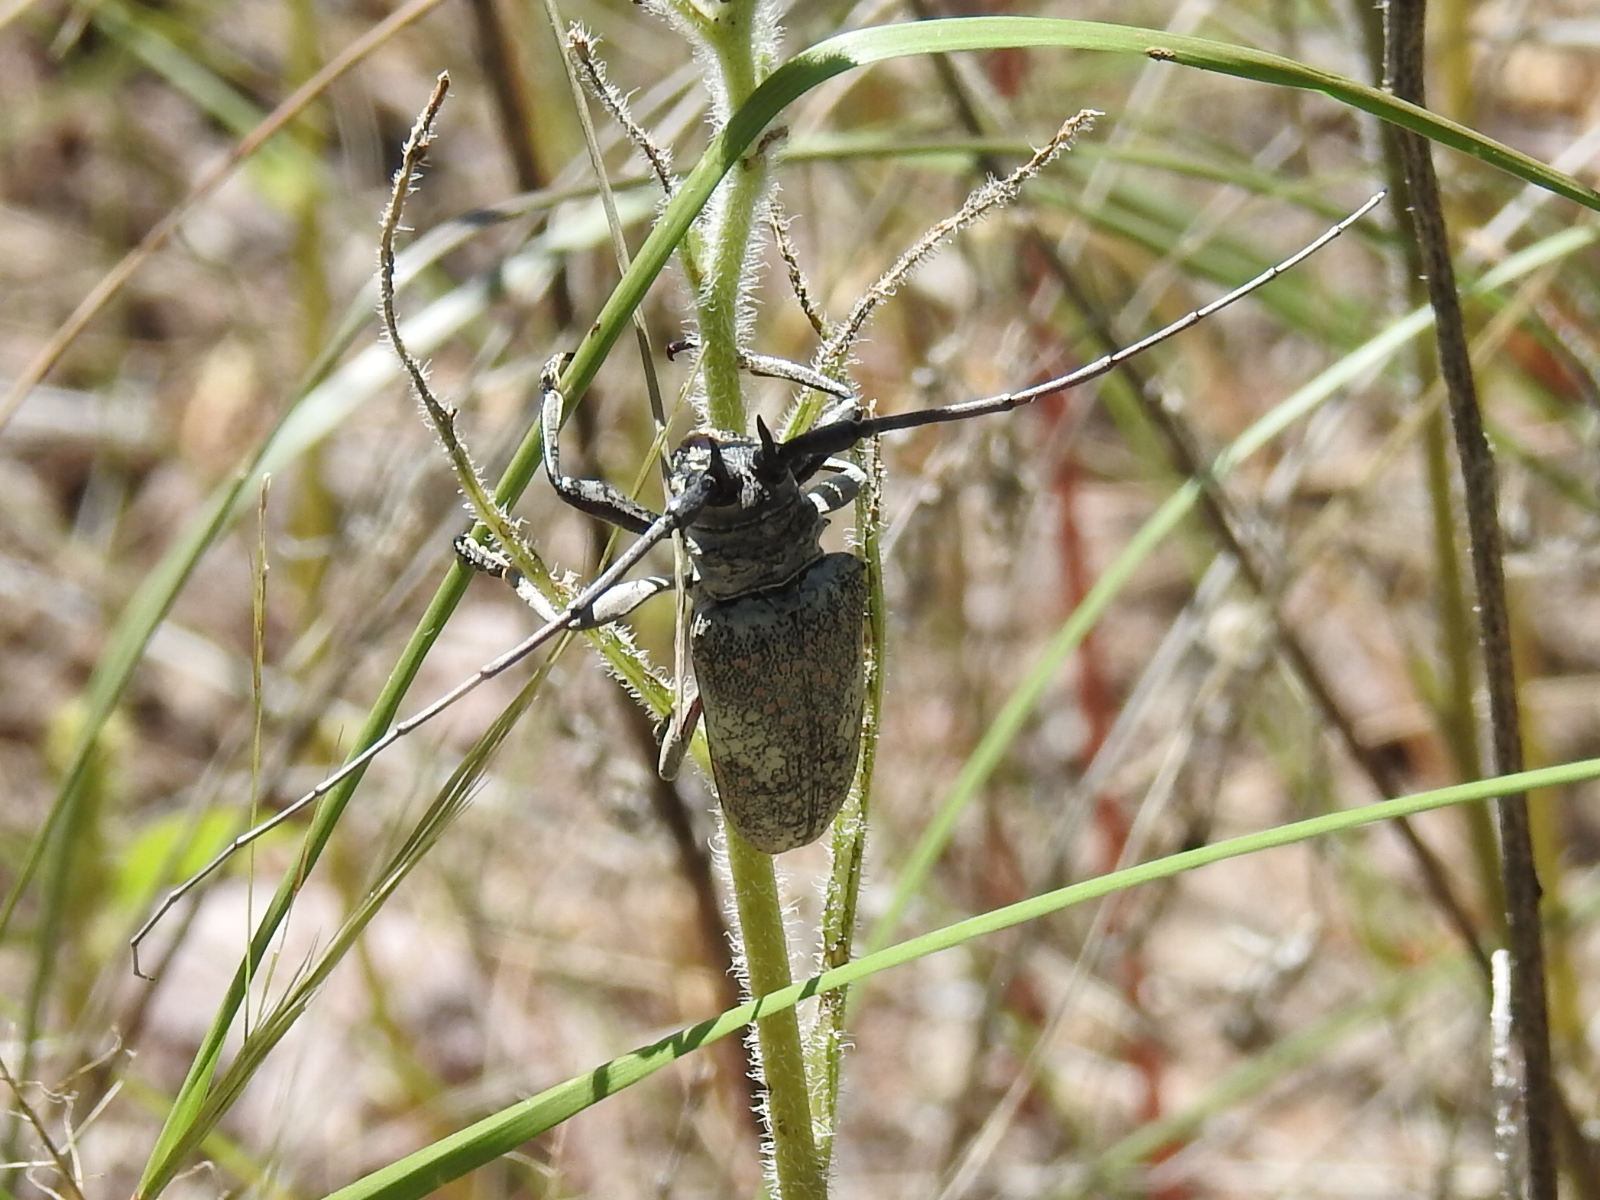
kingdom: Animalia
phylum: Arthropoda
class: Insecta
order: Coleoptera
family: Cerambycidae
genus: Lochmaeocles
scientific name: Lochmaeocles marmoratus
